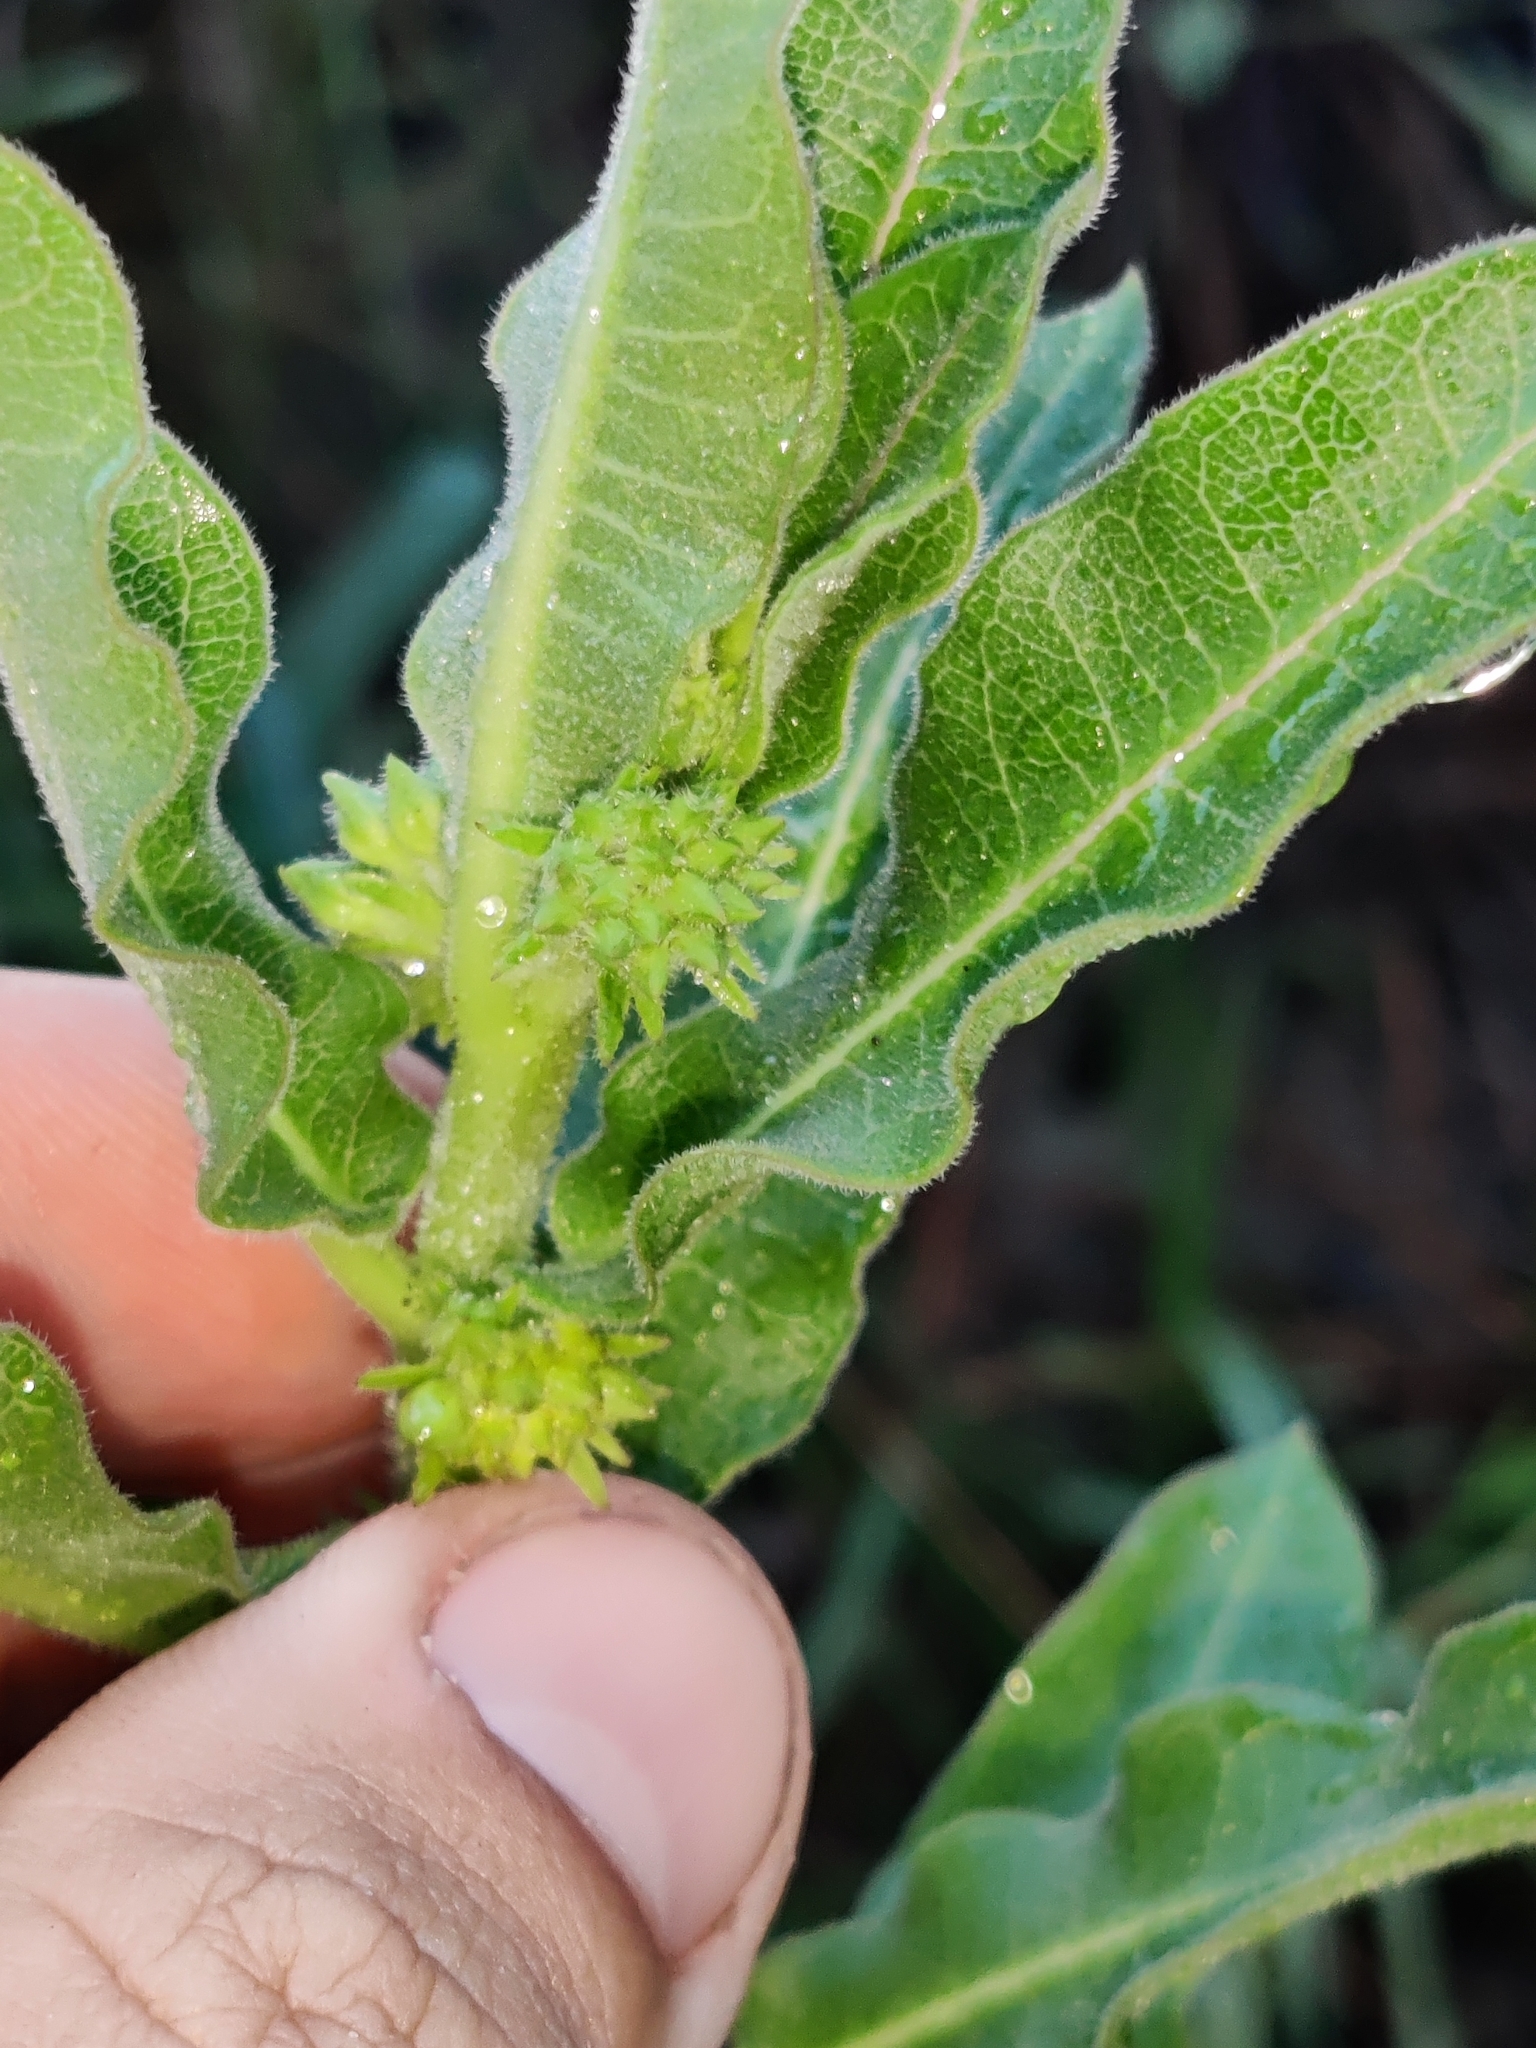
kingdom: Plantae
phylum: Tracheophyta
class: Magnoliopsida
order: Gentianales
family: Apocynaceae
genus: Asclepias
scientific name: Asclepias obovata
